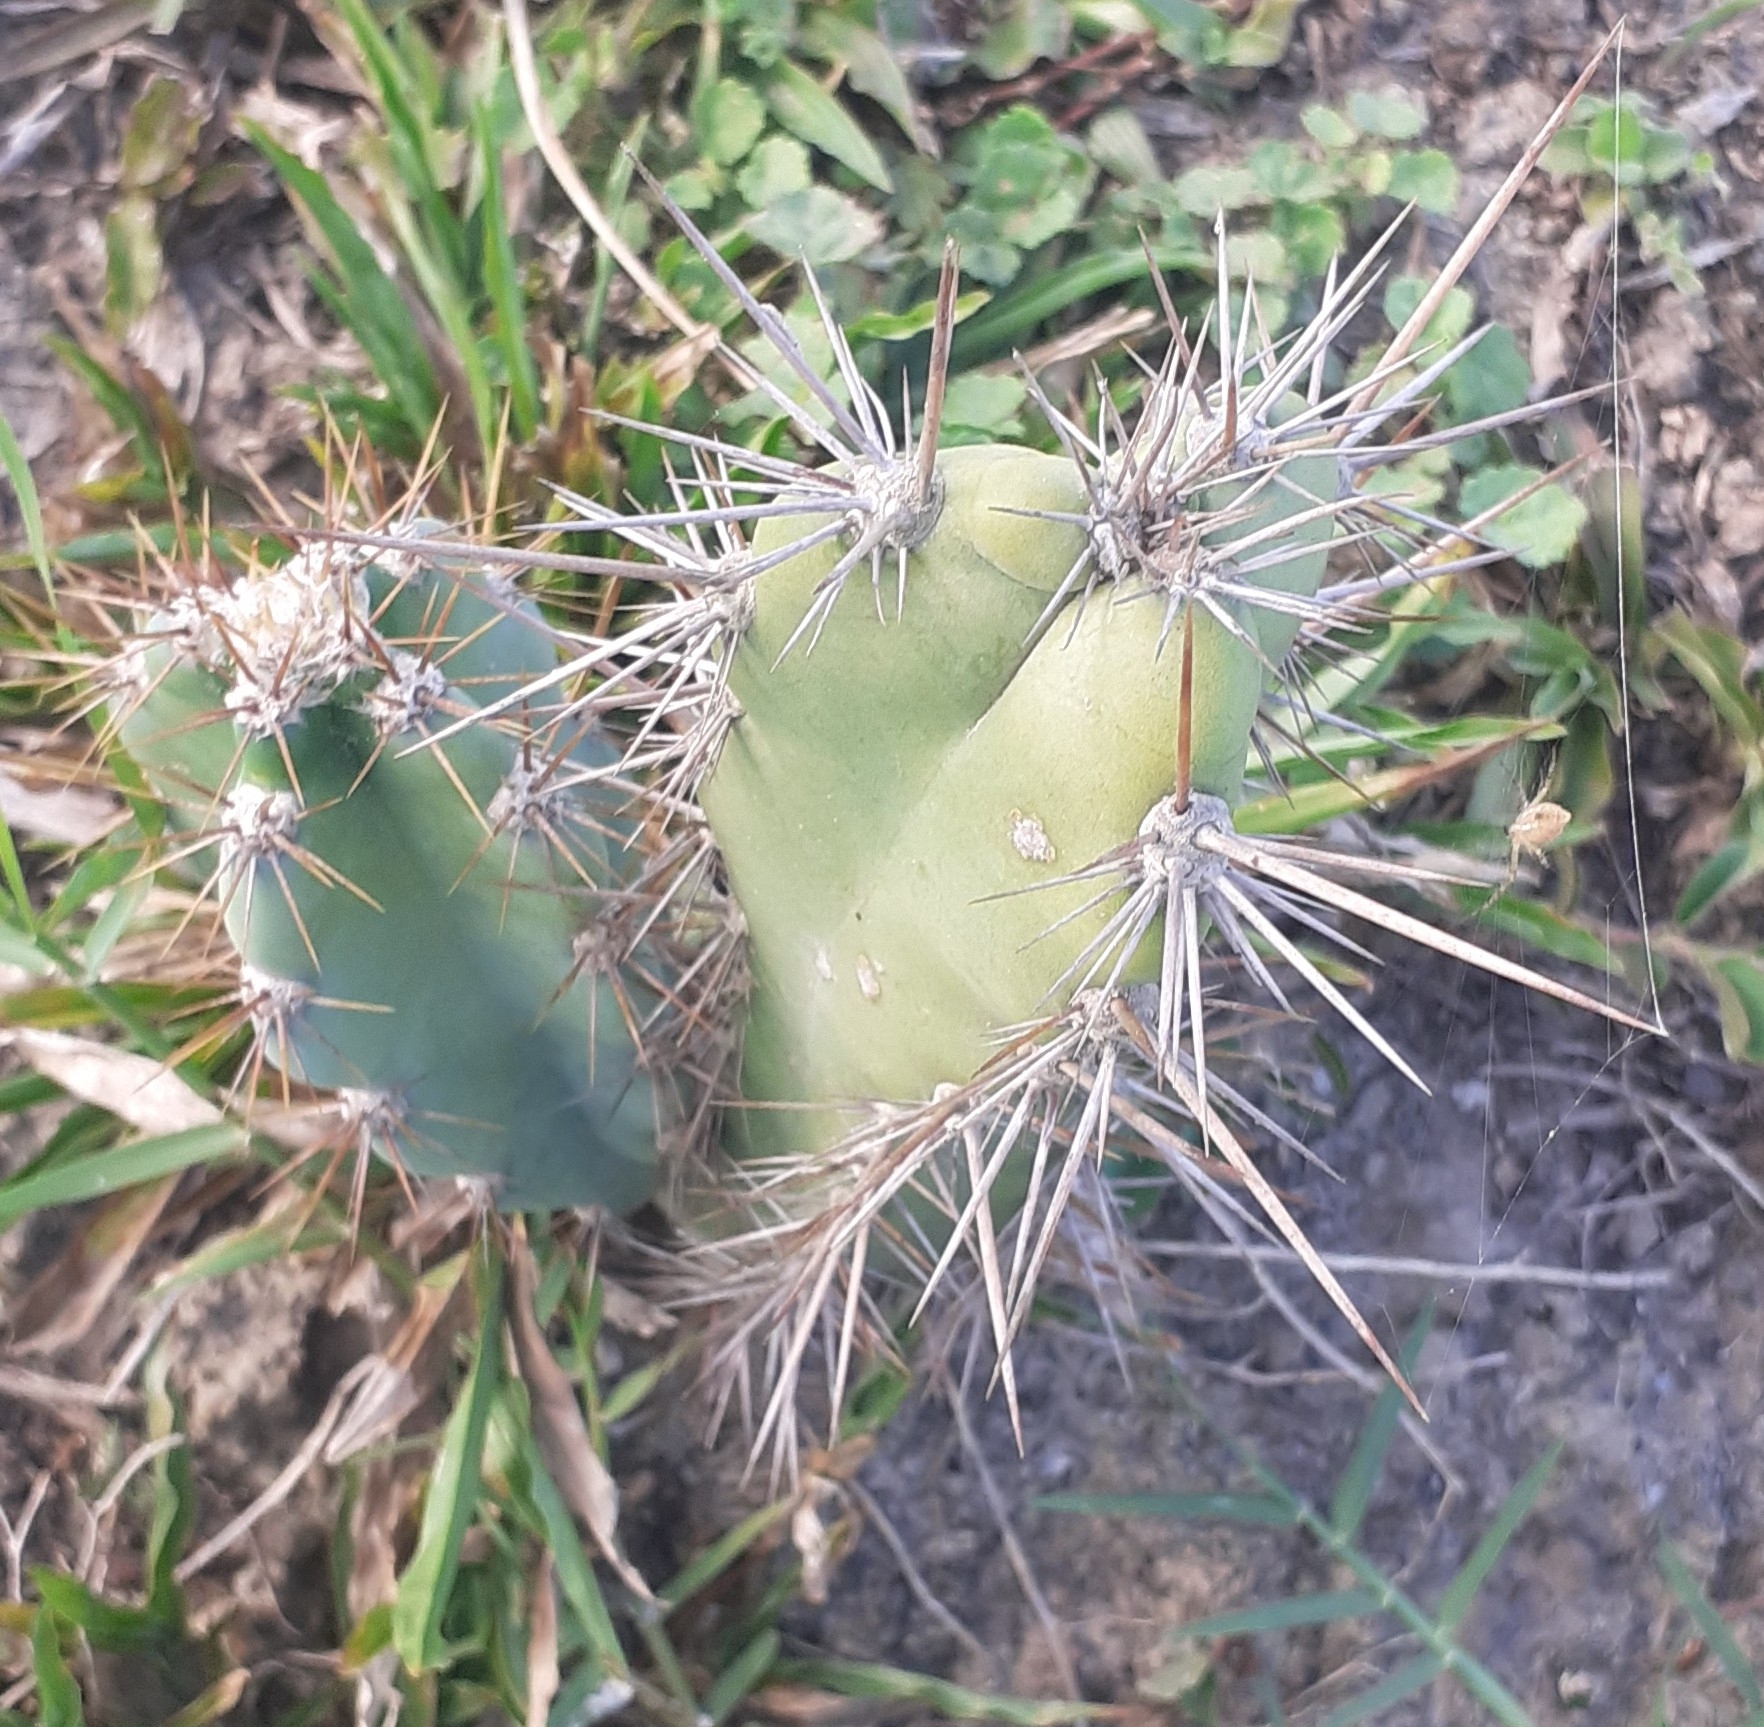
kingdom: Plantae
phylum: Tracheophyta
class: Magnoliopsida
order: Caryophyllales
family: Cactaceae
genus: Cereus
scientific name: Cereus jamacaru
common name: Queen-of-the-night
